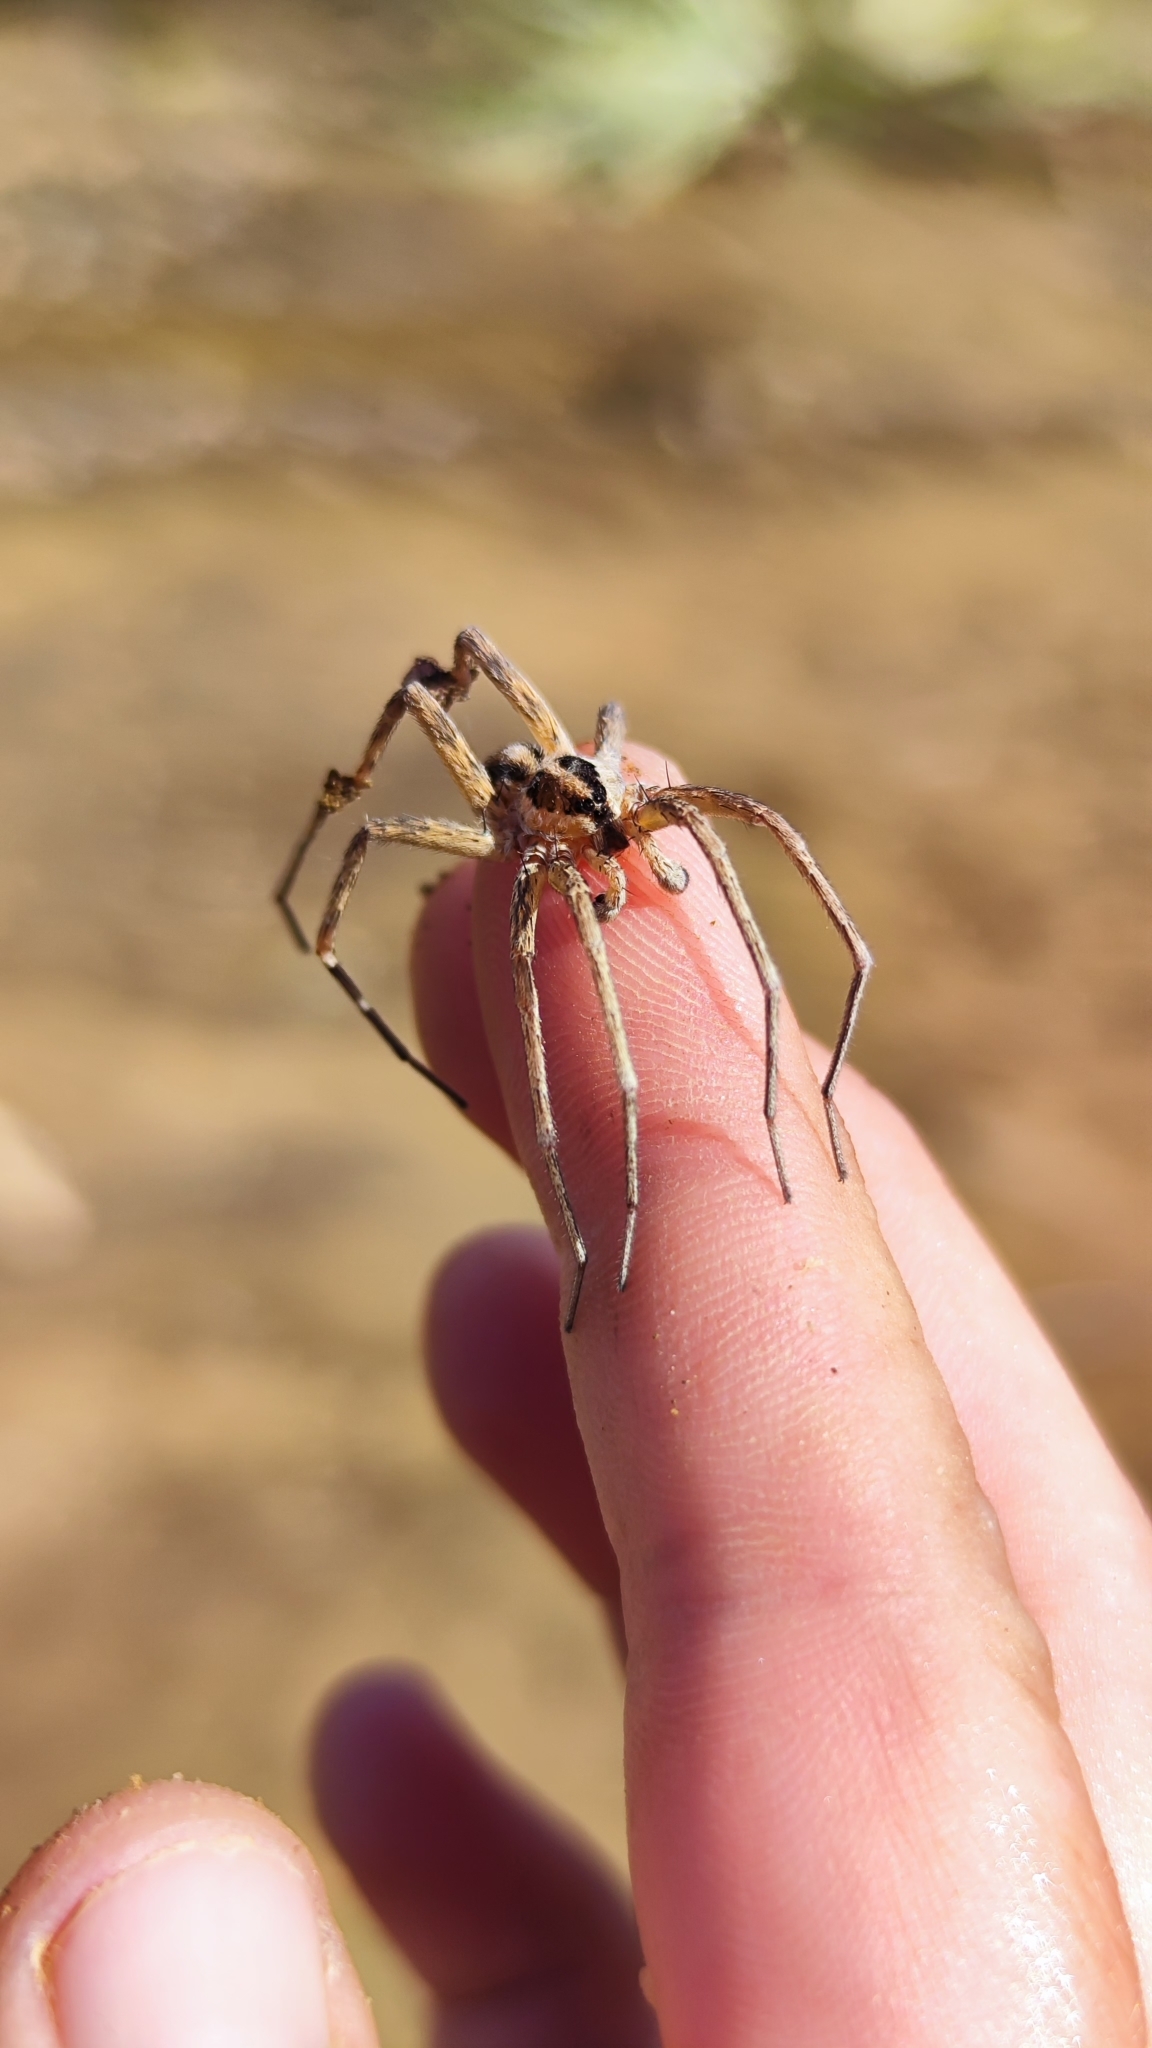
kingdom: Animalia
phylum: Arthropoda
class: Arachnida
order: Araneae
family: Xenoctenidae
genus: Xenoctenus
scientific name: Xenoctenus
